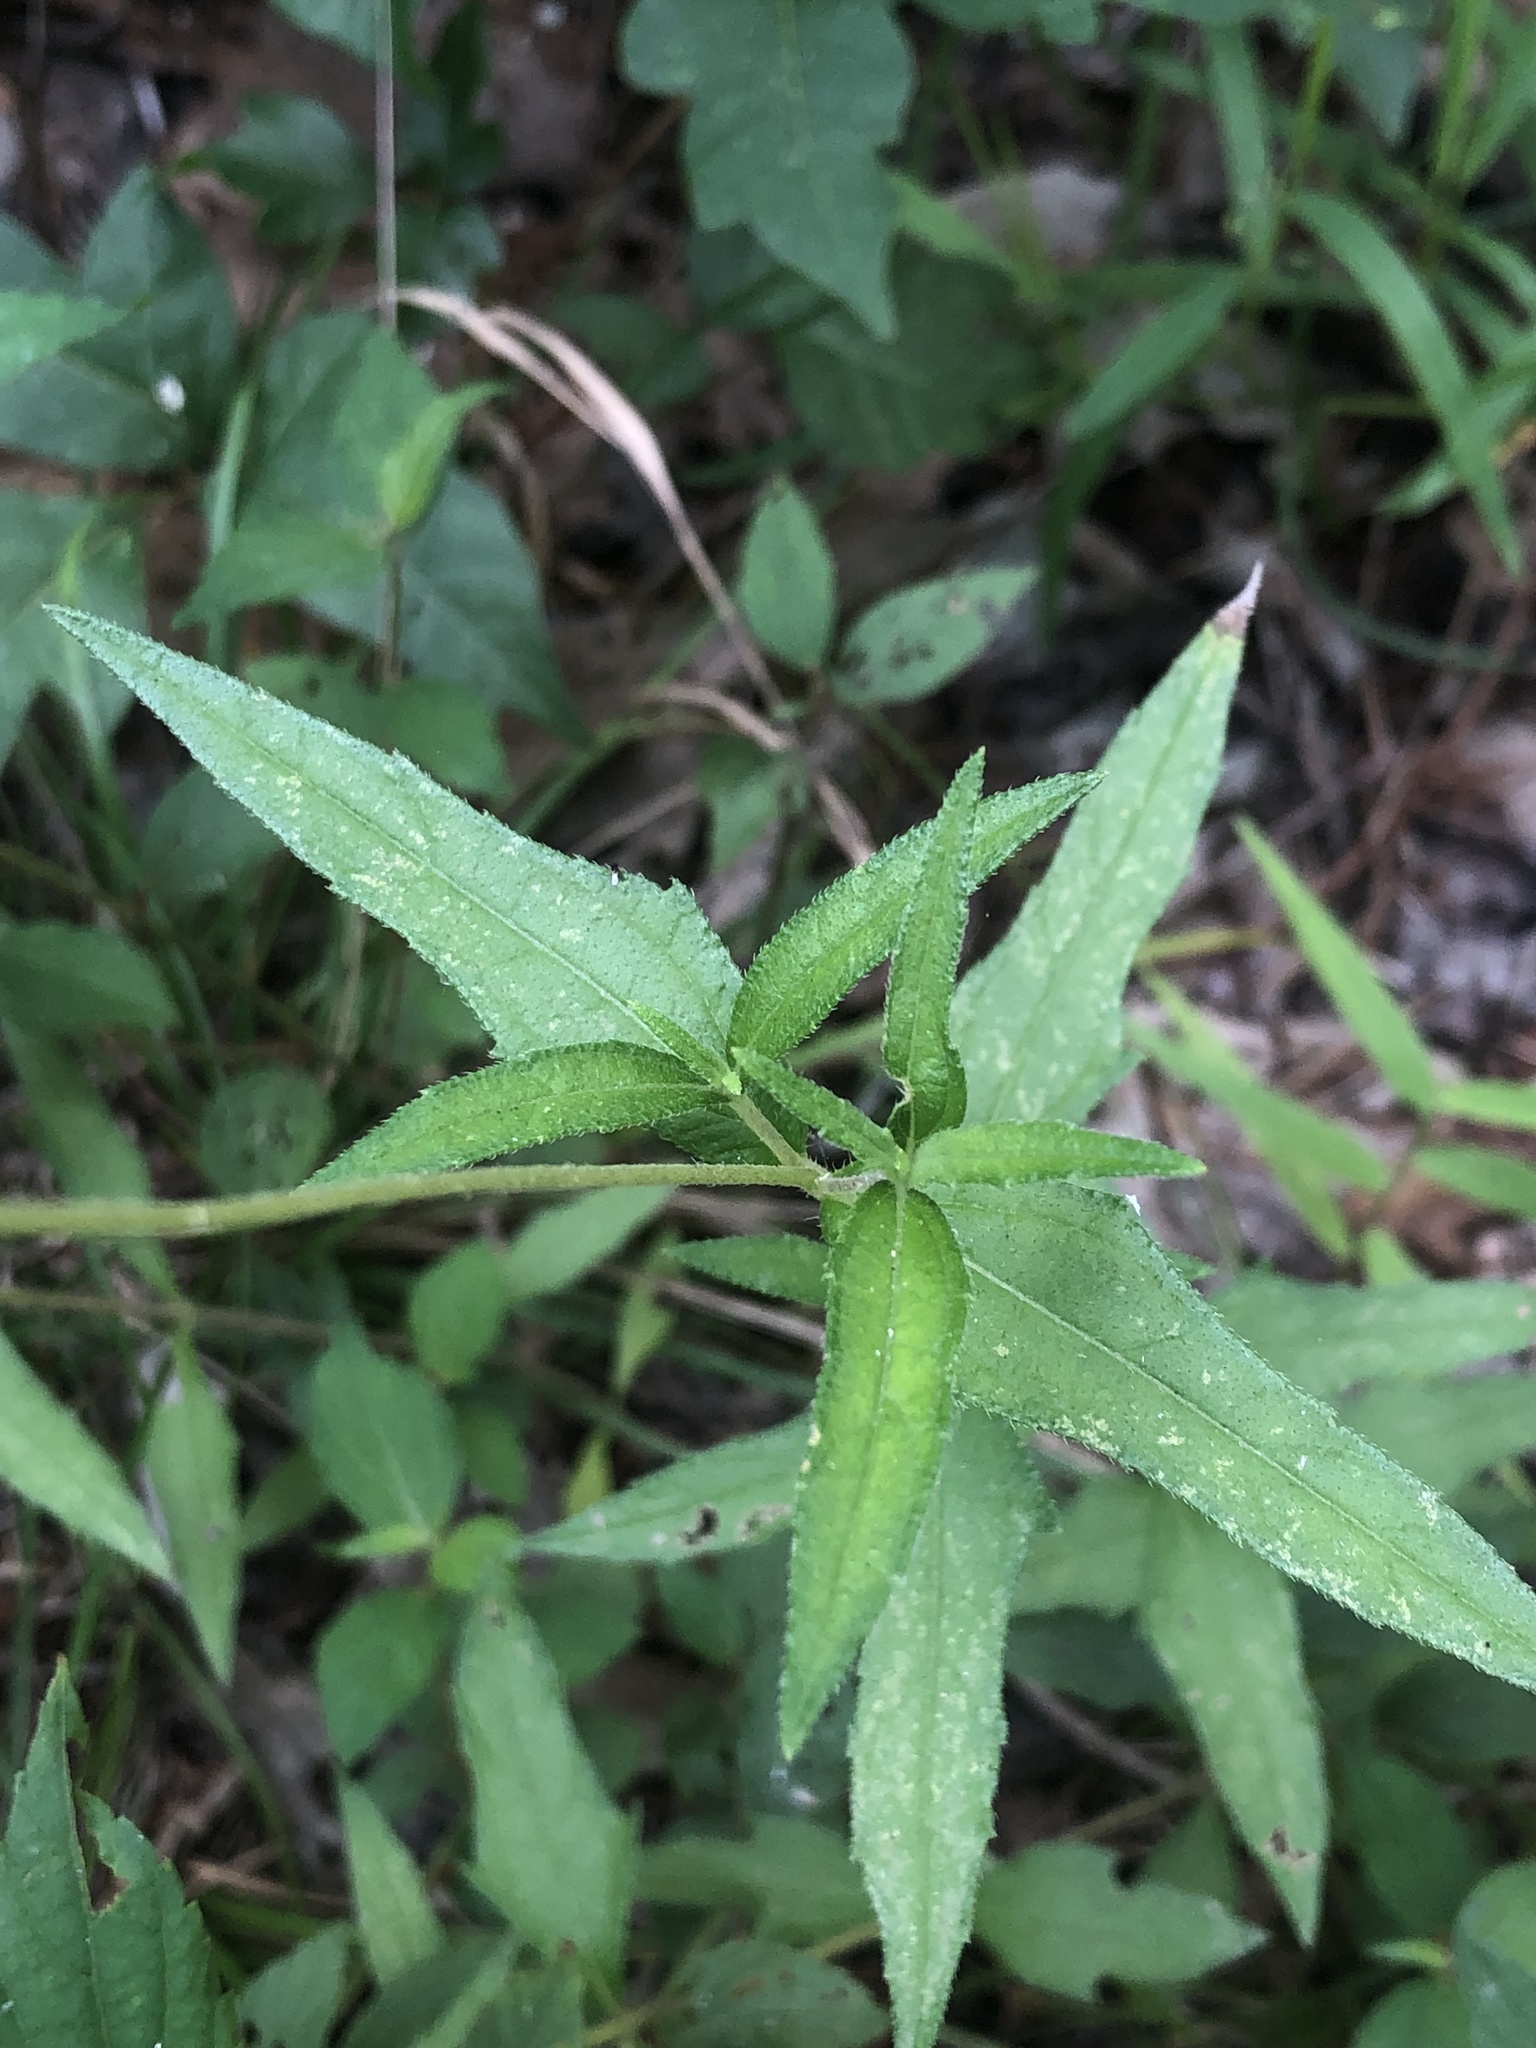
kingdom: Plantae
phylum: Tracheophyta
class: Magnoliopsida
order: Asterales
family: Asteraceae
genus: Wedelia
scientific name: Wedelia acapulcensis
